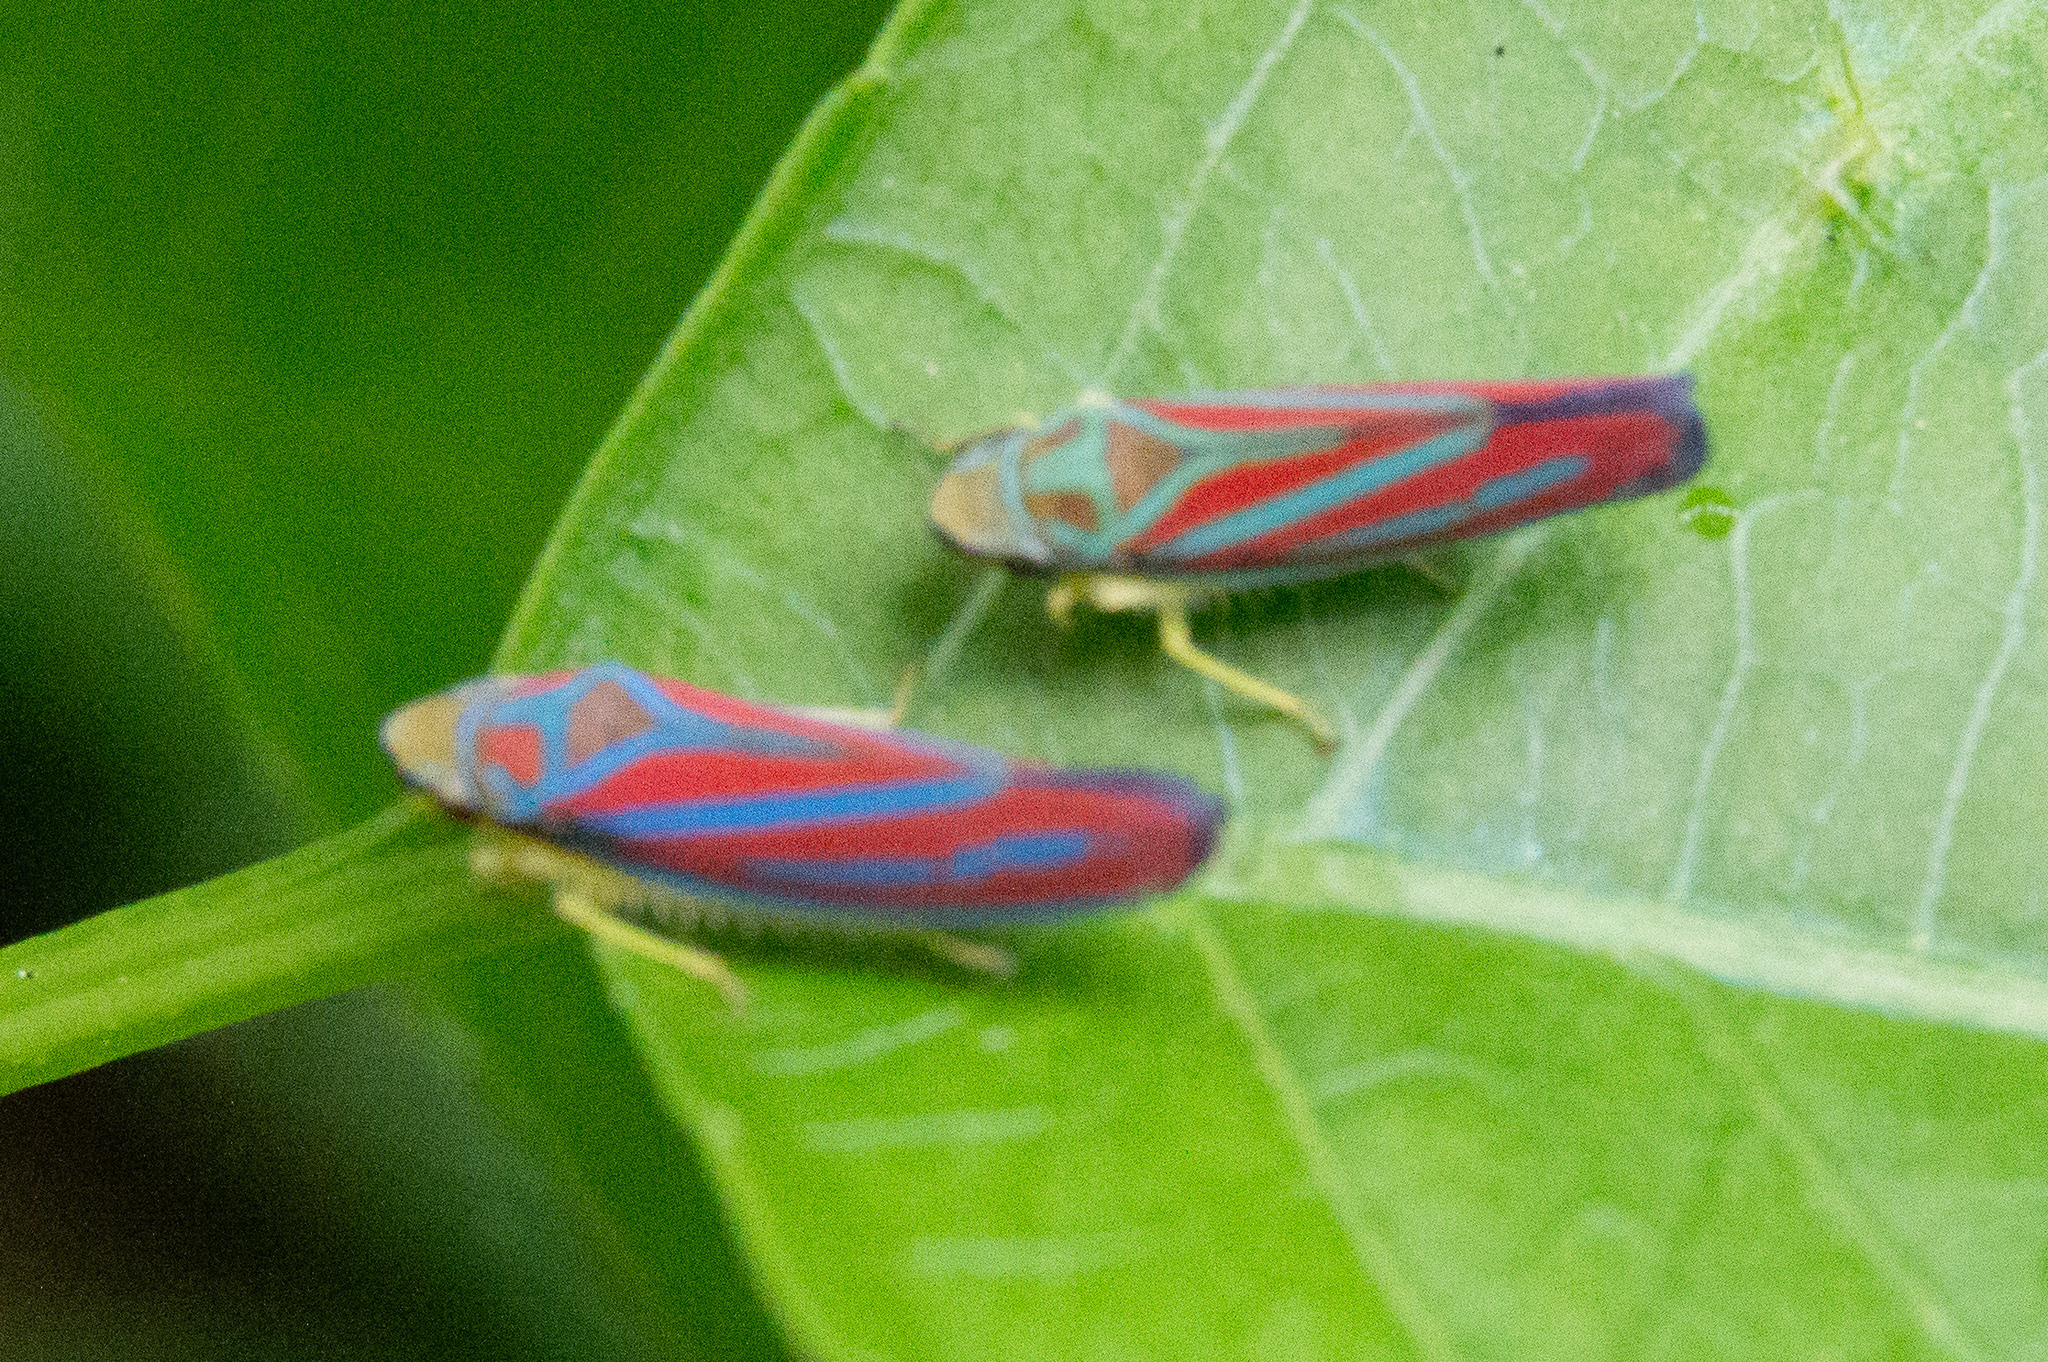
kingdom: Animalia
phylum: Arthropoda
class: Insecta
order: Hemiptera
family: Cicadellidae
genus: Graphocephala
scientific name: Graphocephala coccinea
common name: Candy-striped leafhopper
